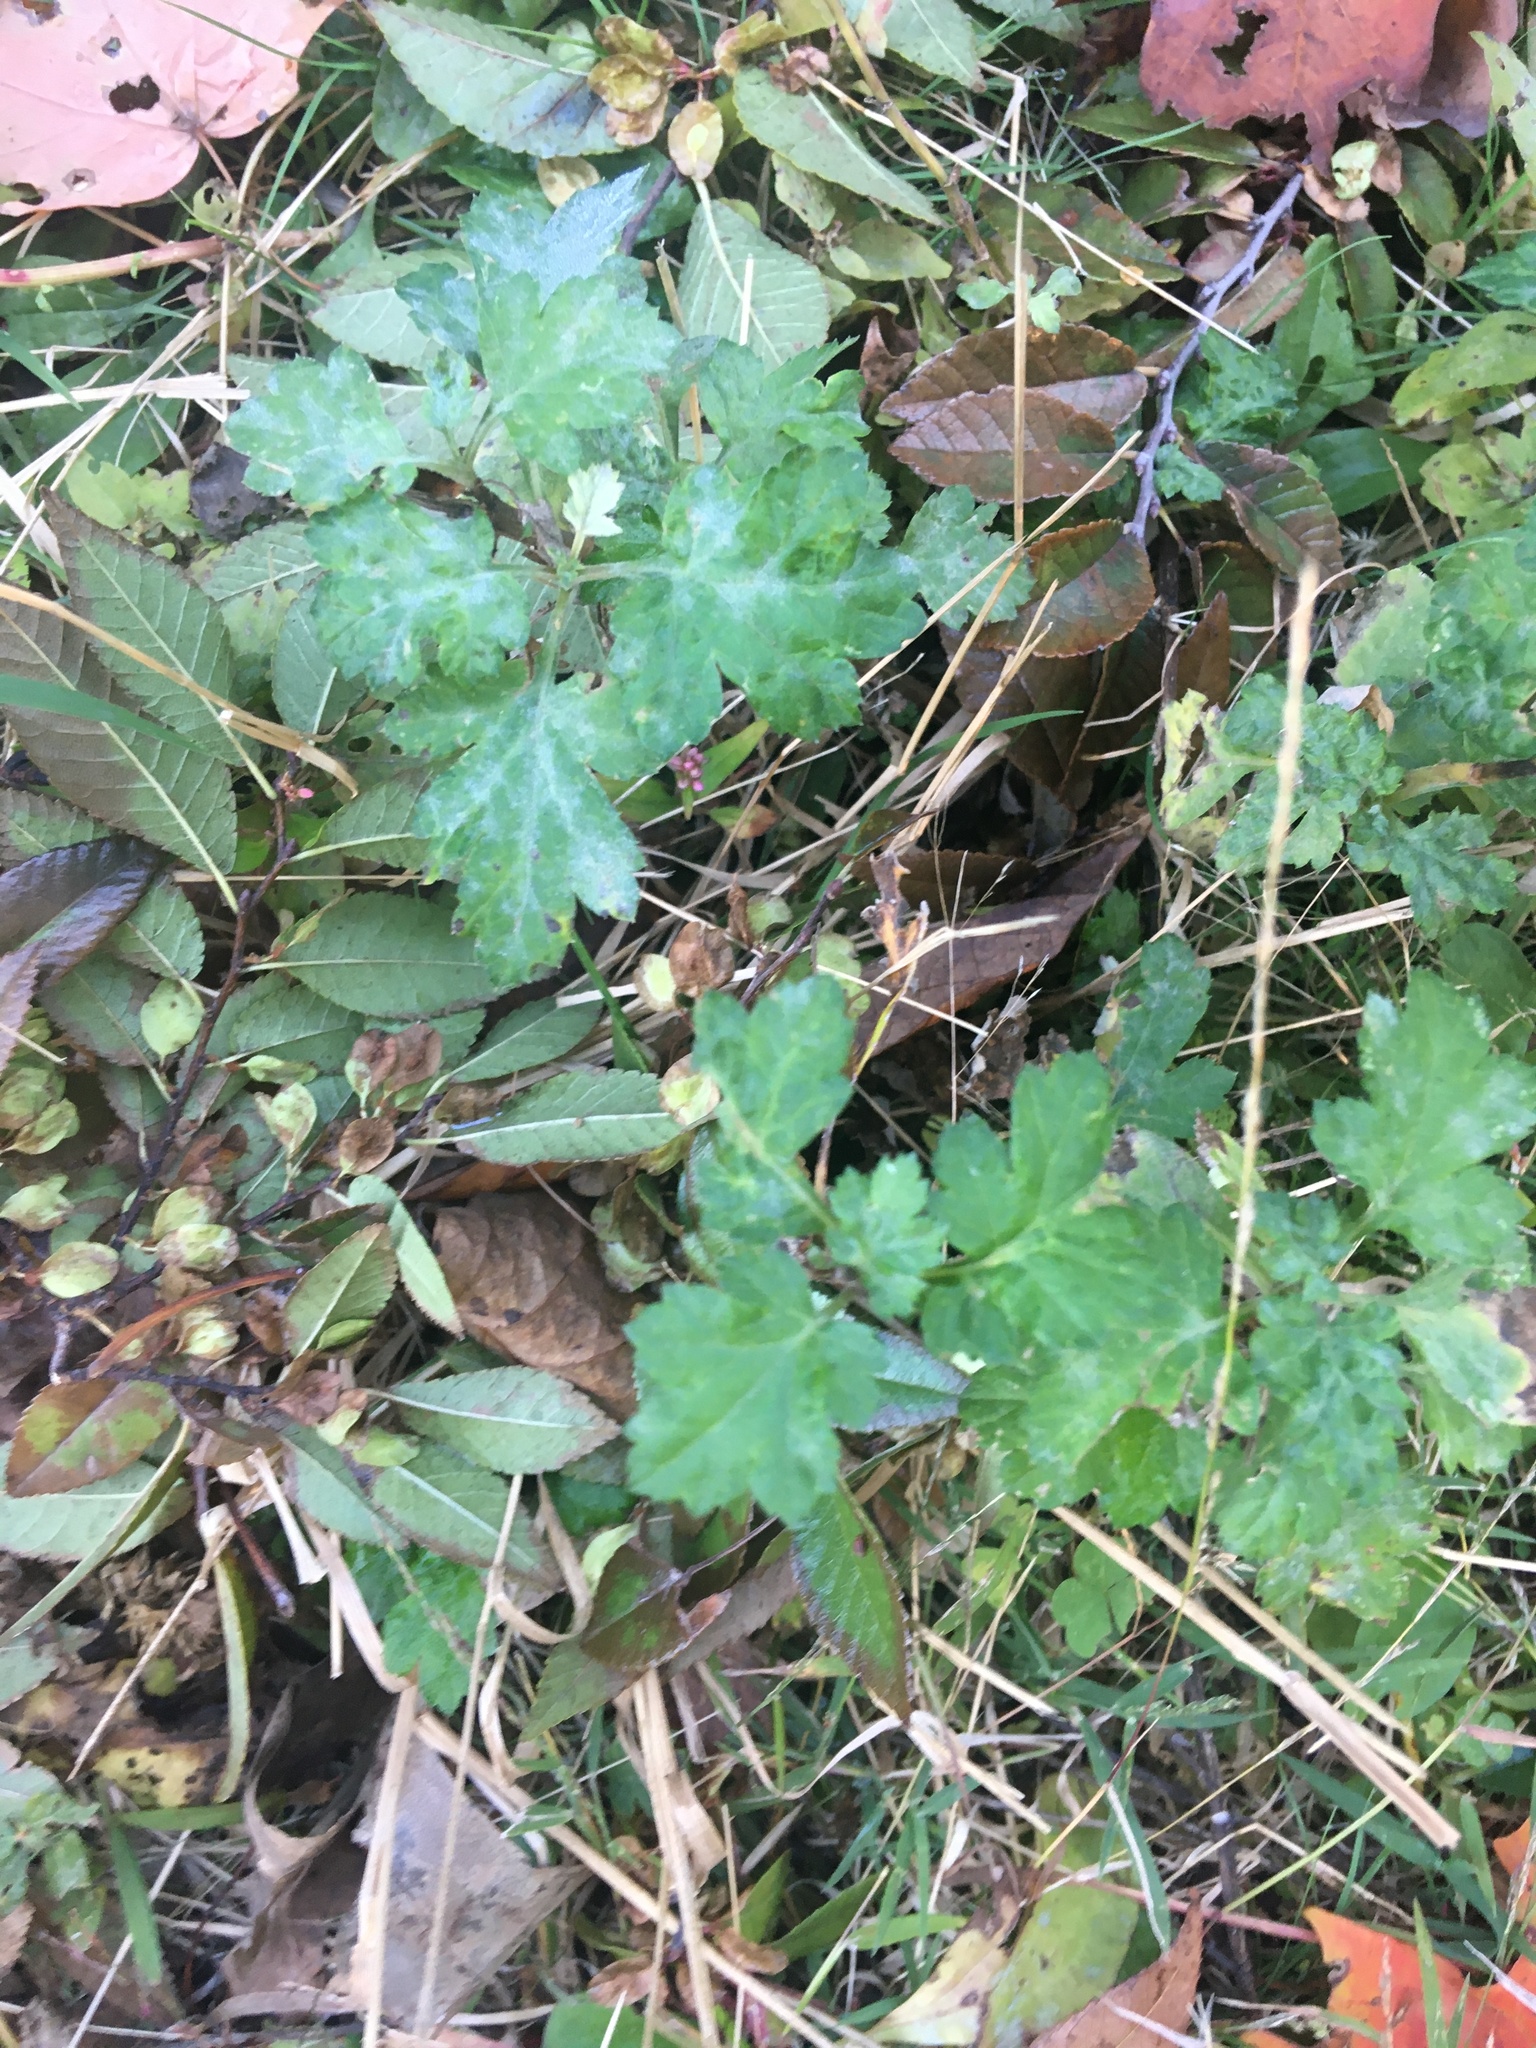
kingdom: Plantae
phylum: Tracheophyta
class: Magnoliopsida
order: Asterales
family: Asteraceae
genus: Artemisia
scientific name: Artemisia vulgaris
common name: Mugwort
